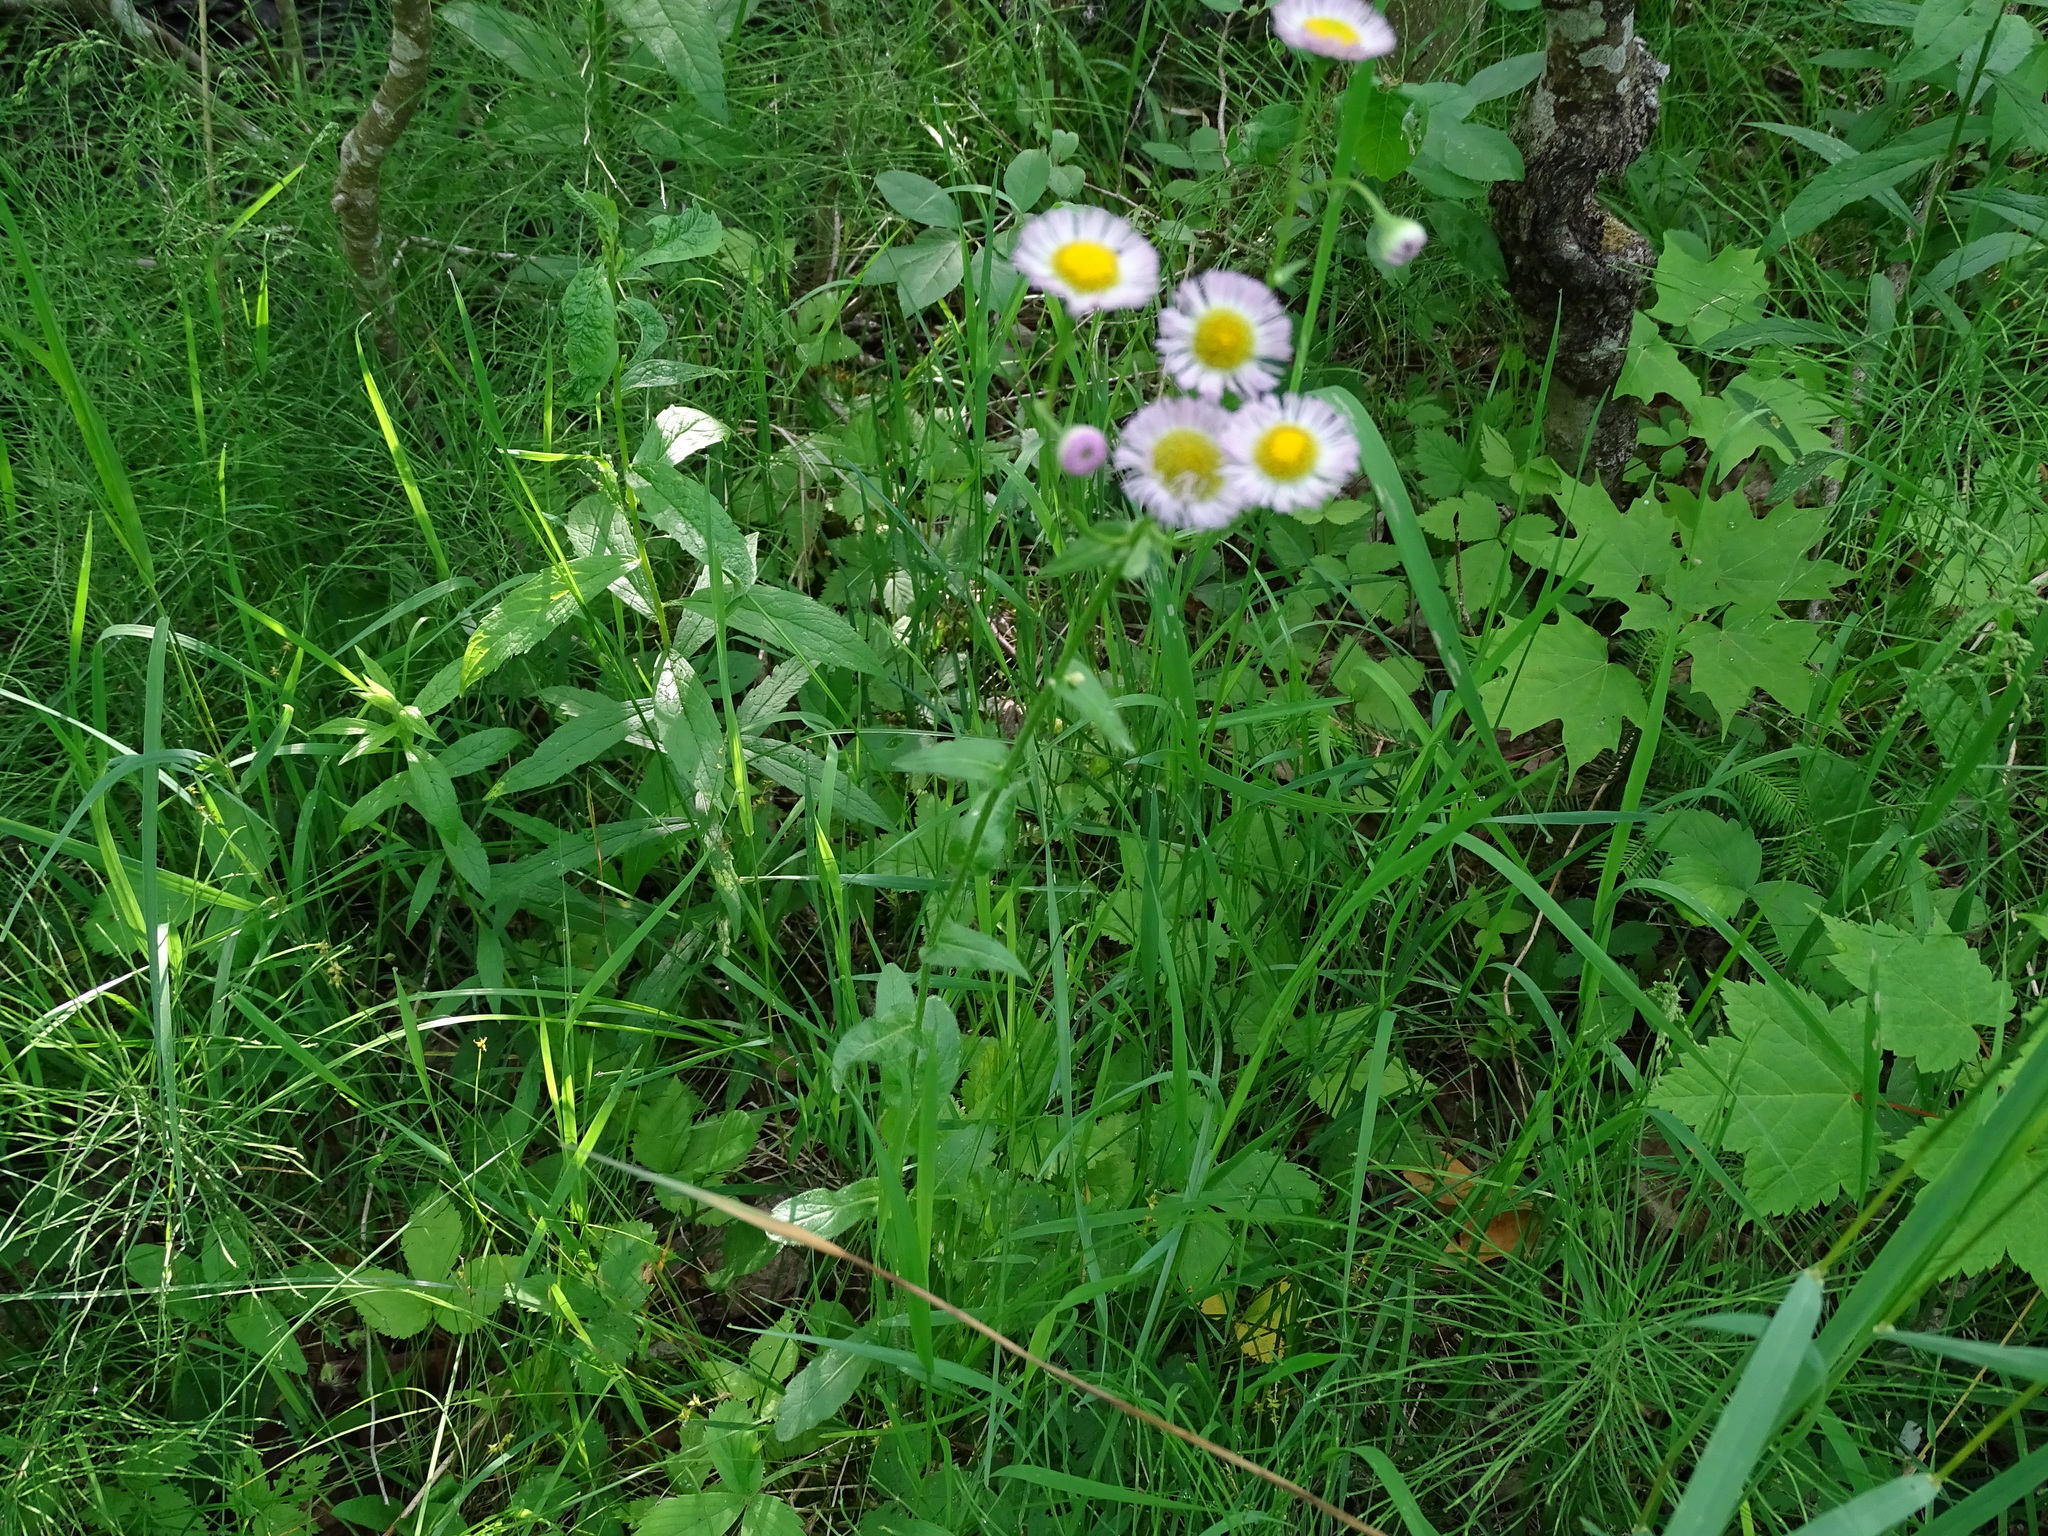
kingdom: Plantae
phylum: Tracheophyta
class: Magnoliopsida
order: Asterales
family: Asteraceae
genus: Erigeron
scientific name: Erigeron philadelphicus
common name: Robin's-plantain
